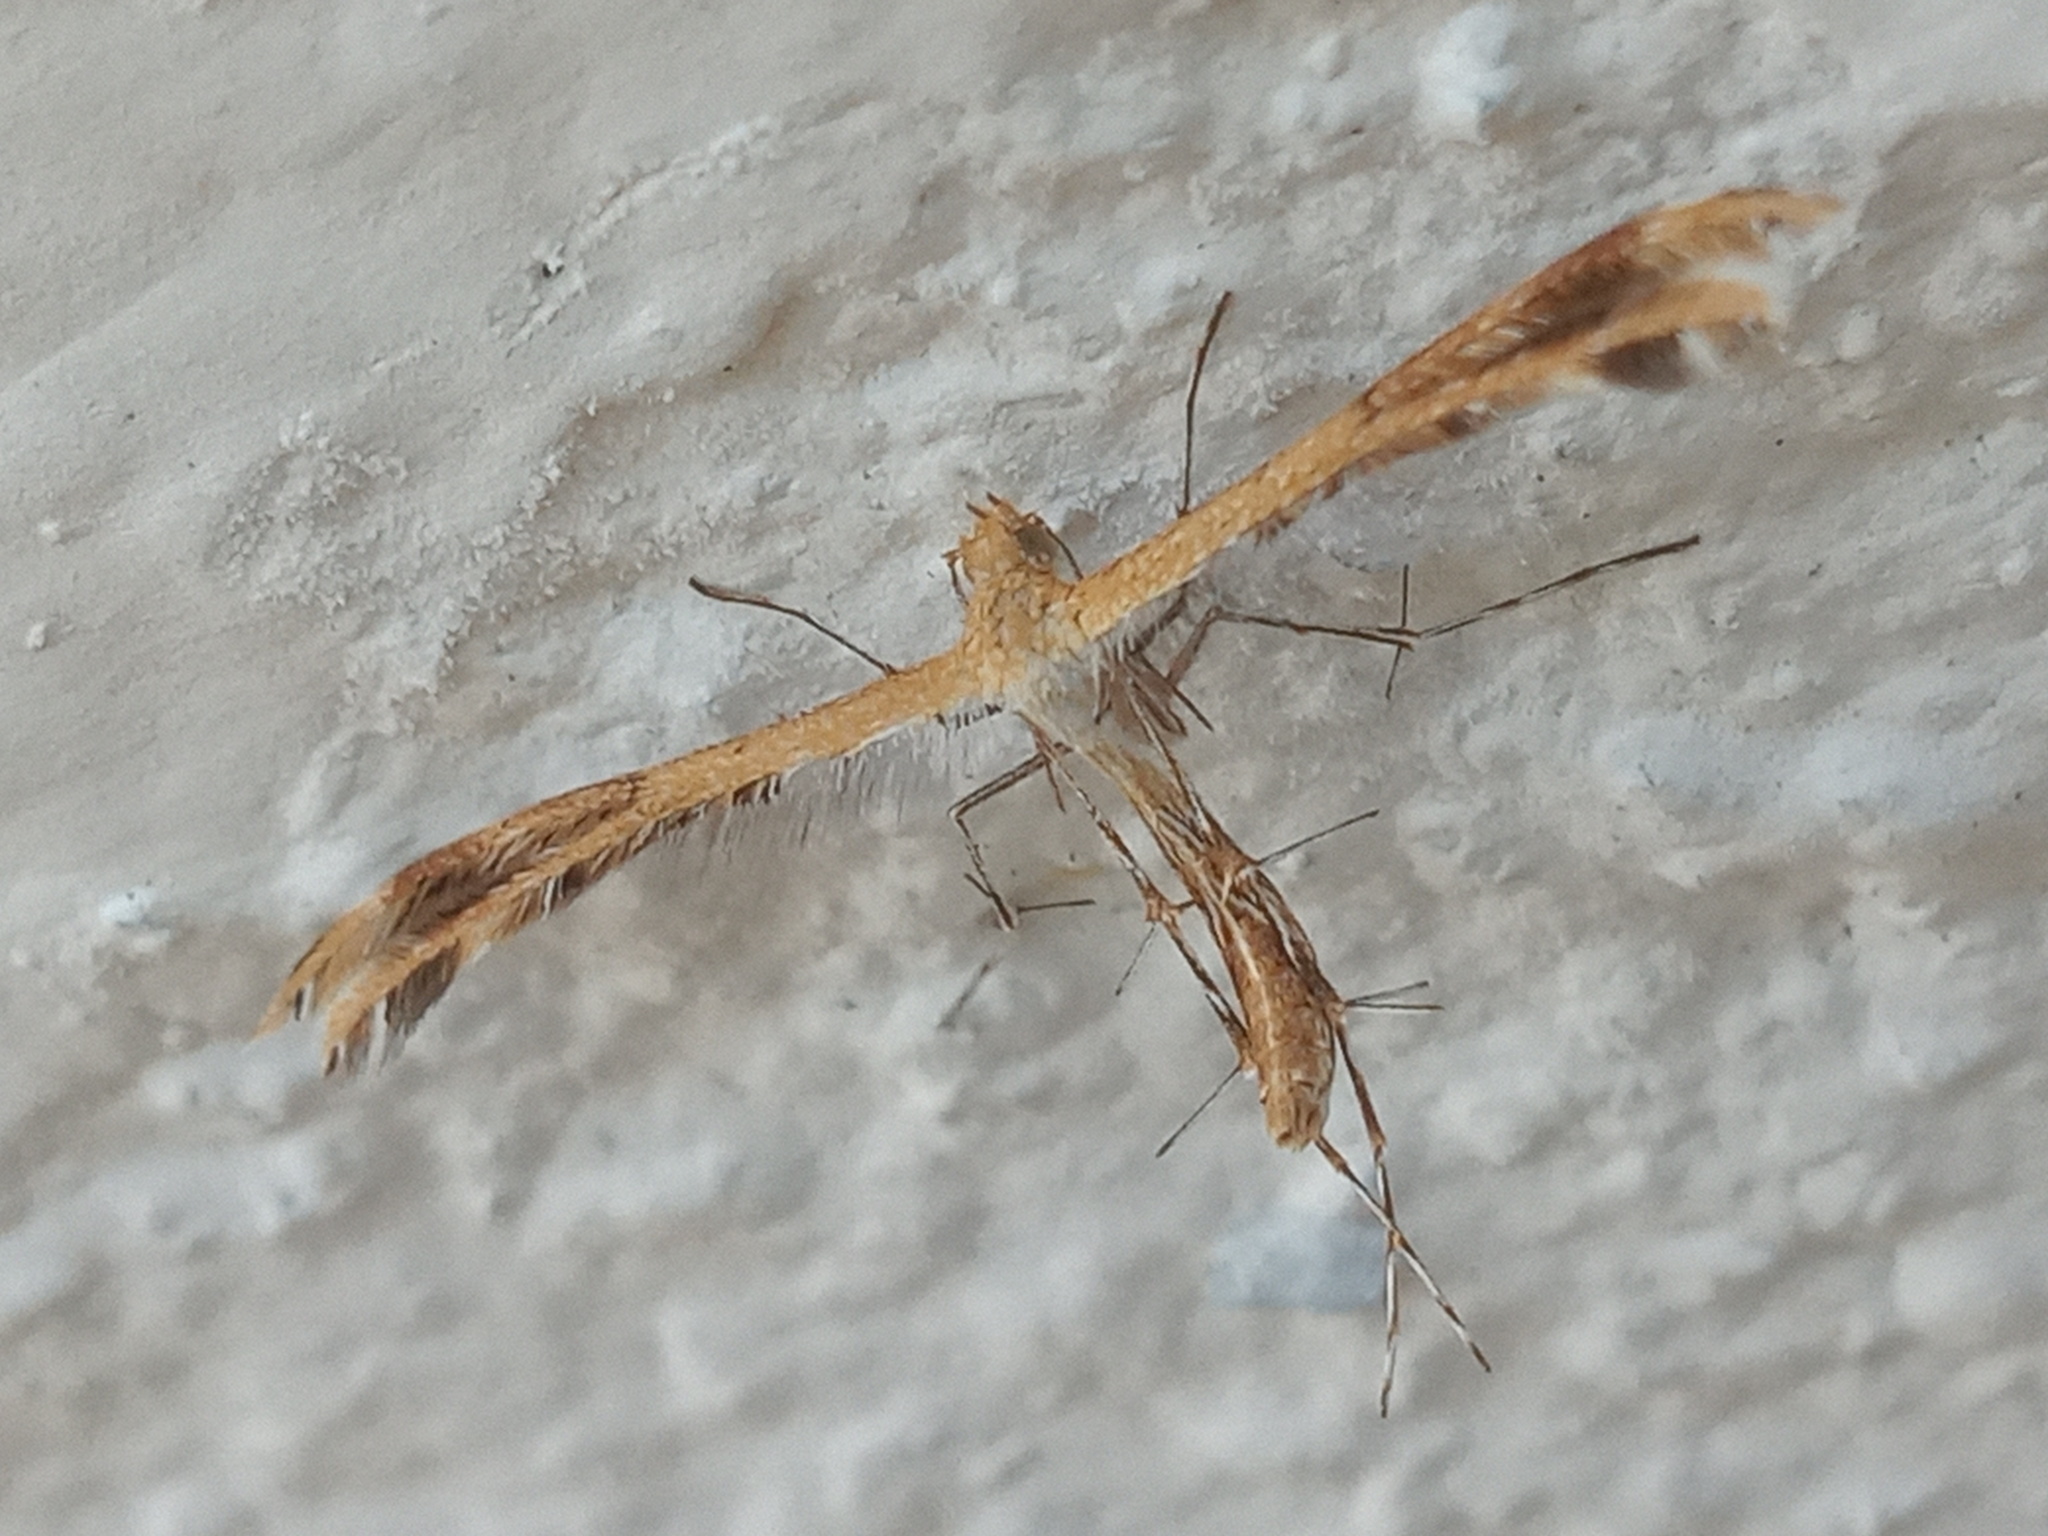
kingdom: Animalia
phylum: Arthropoda
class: Insecta
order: Lepidoptera
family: Pterophoridae
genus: Megalorhipida
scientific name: Megalorhipida leucodactylus
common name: Plume moth
